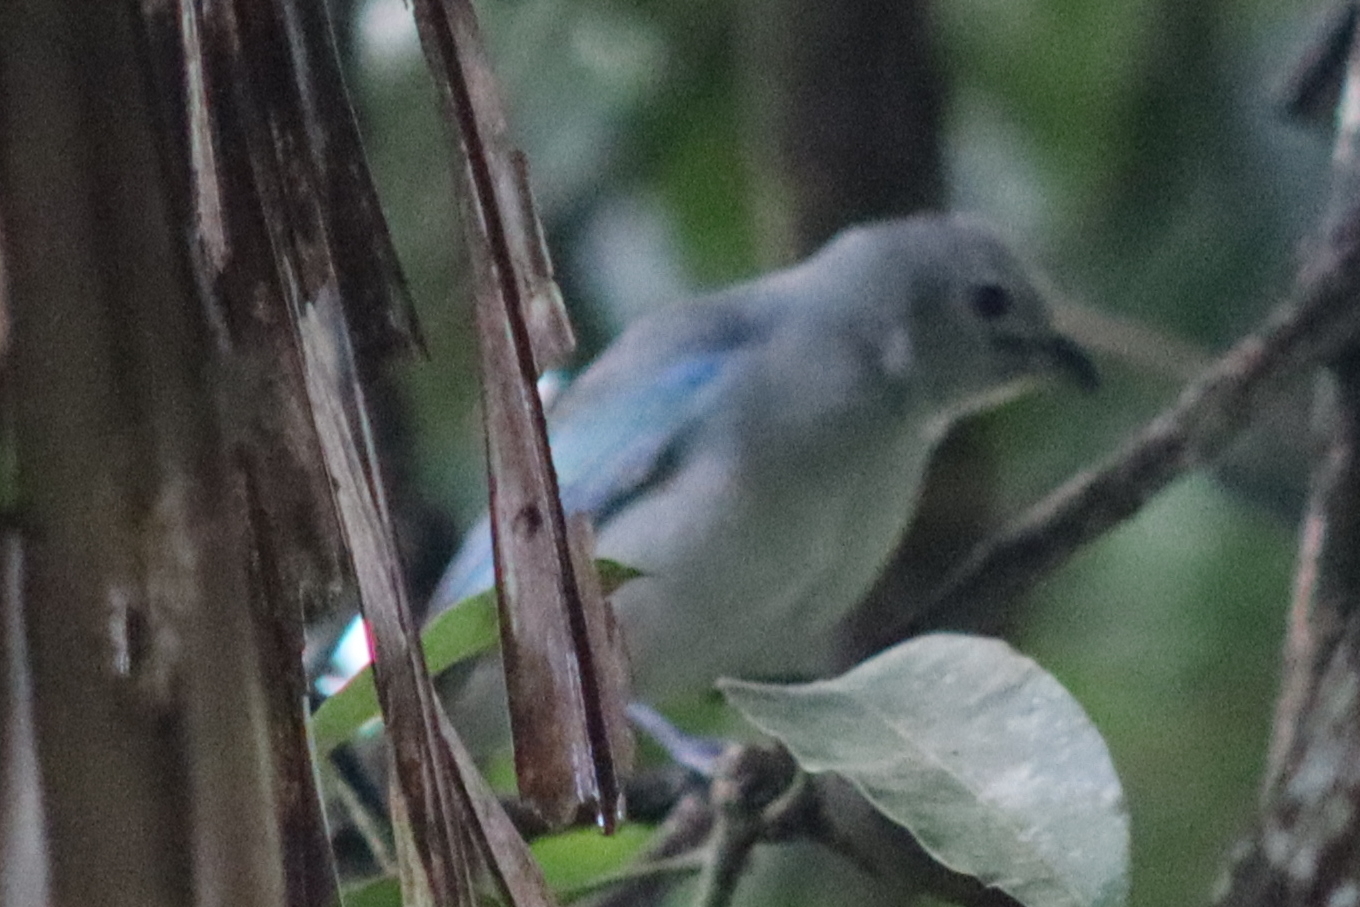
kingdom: Animalia
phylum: Chordata
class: Aves
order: Passeriformes
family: Thraupidae
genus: Thraupis
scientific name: Thraupis episcopus
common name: Blue-grey tanager
